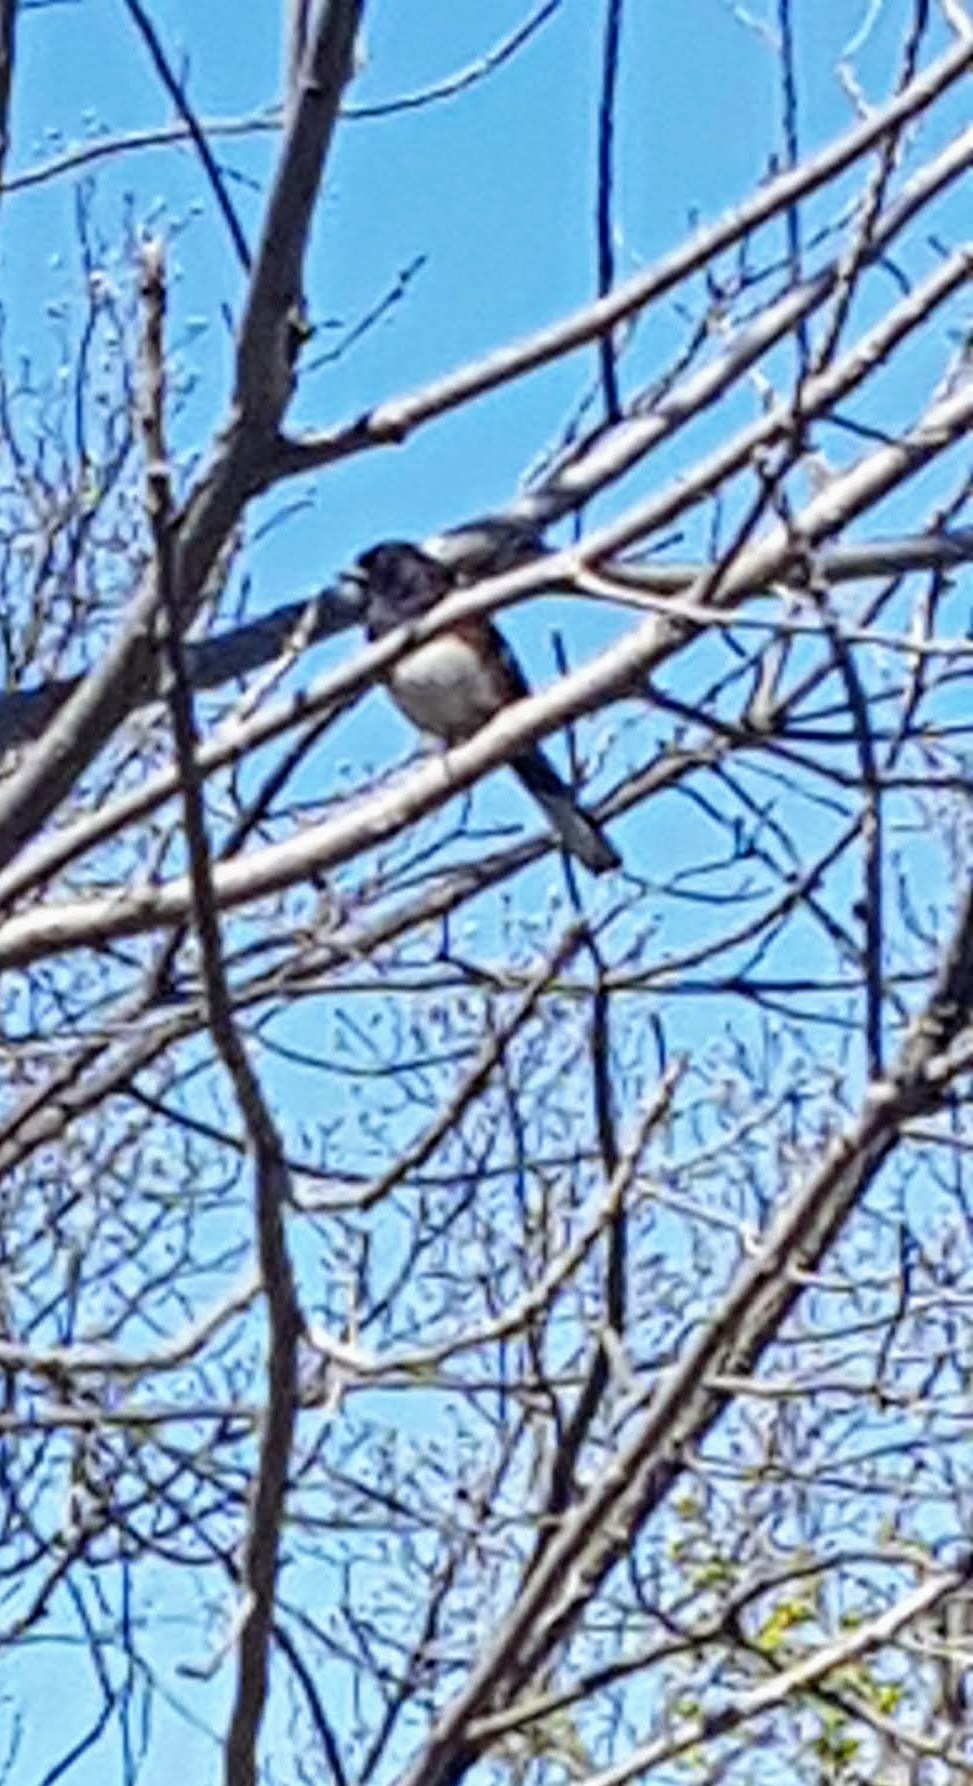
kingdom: Animalia
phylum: Chordata
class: Aves
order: Passeriformes
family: Passerellidae
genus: Pipilo
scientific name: Pipilo erythrophthalmus
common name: Eastern towhee
